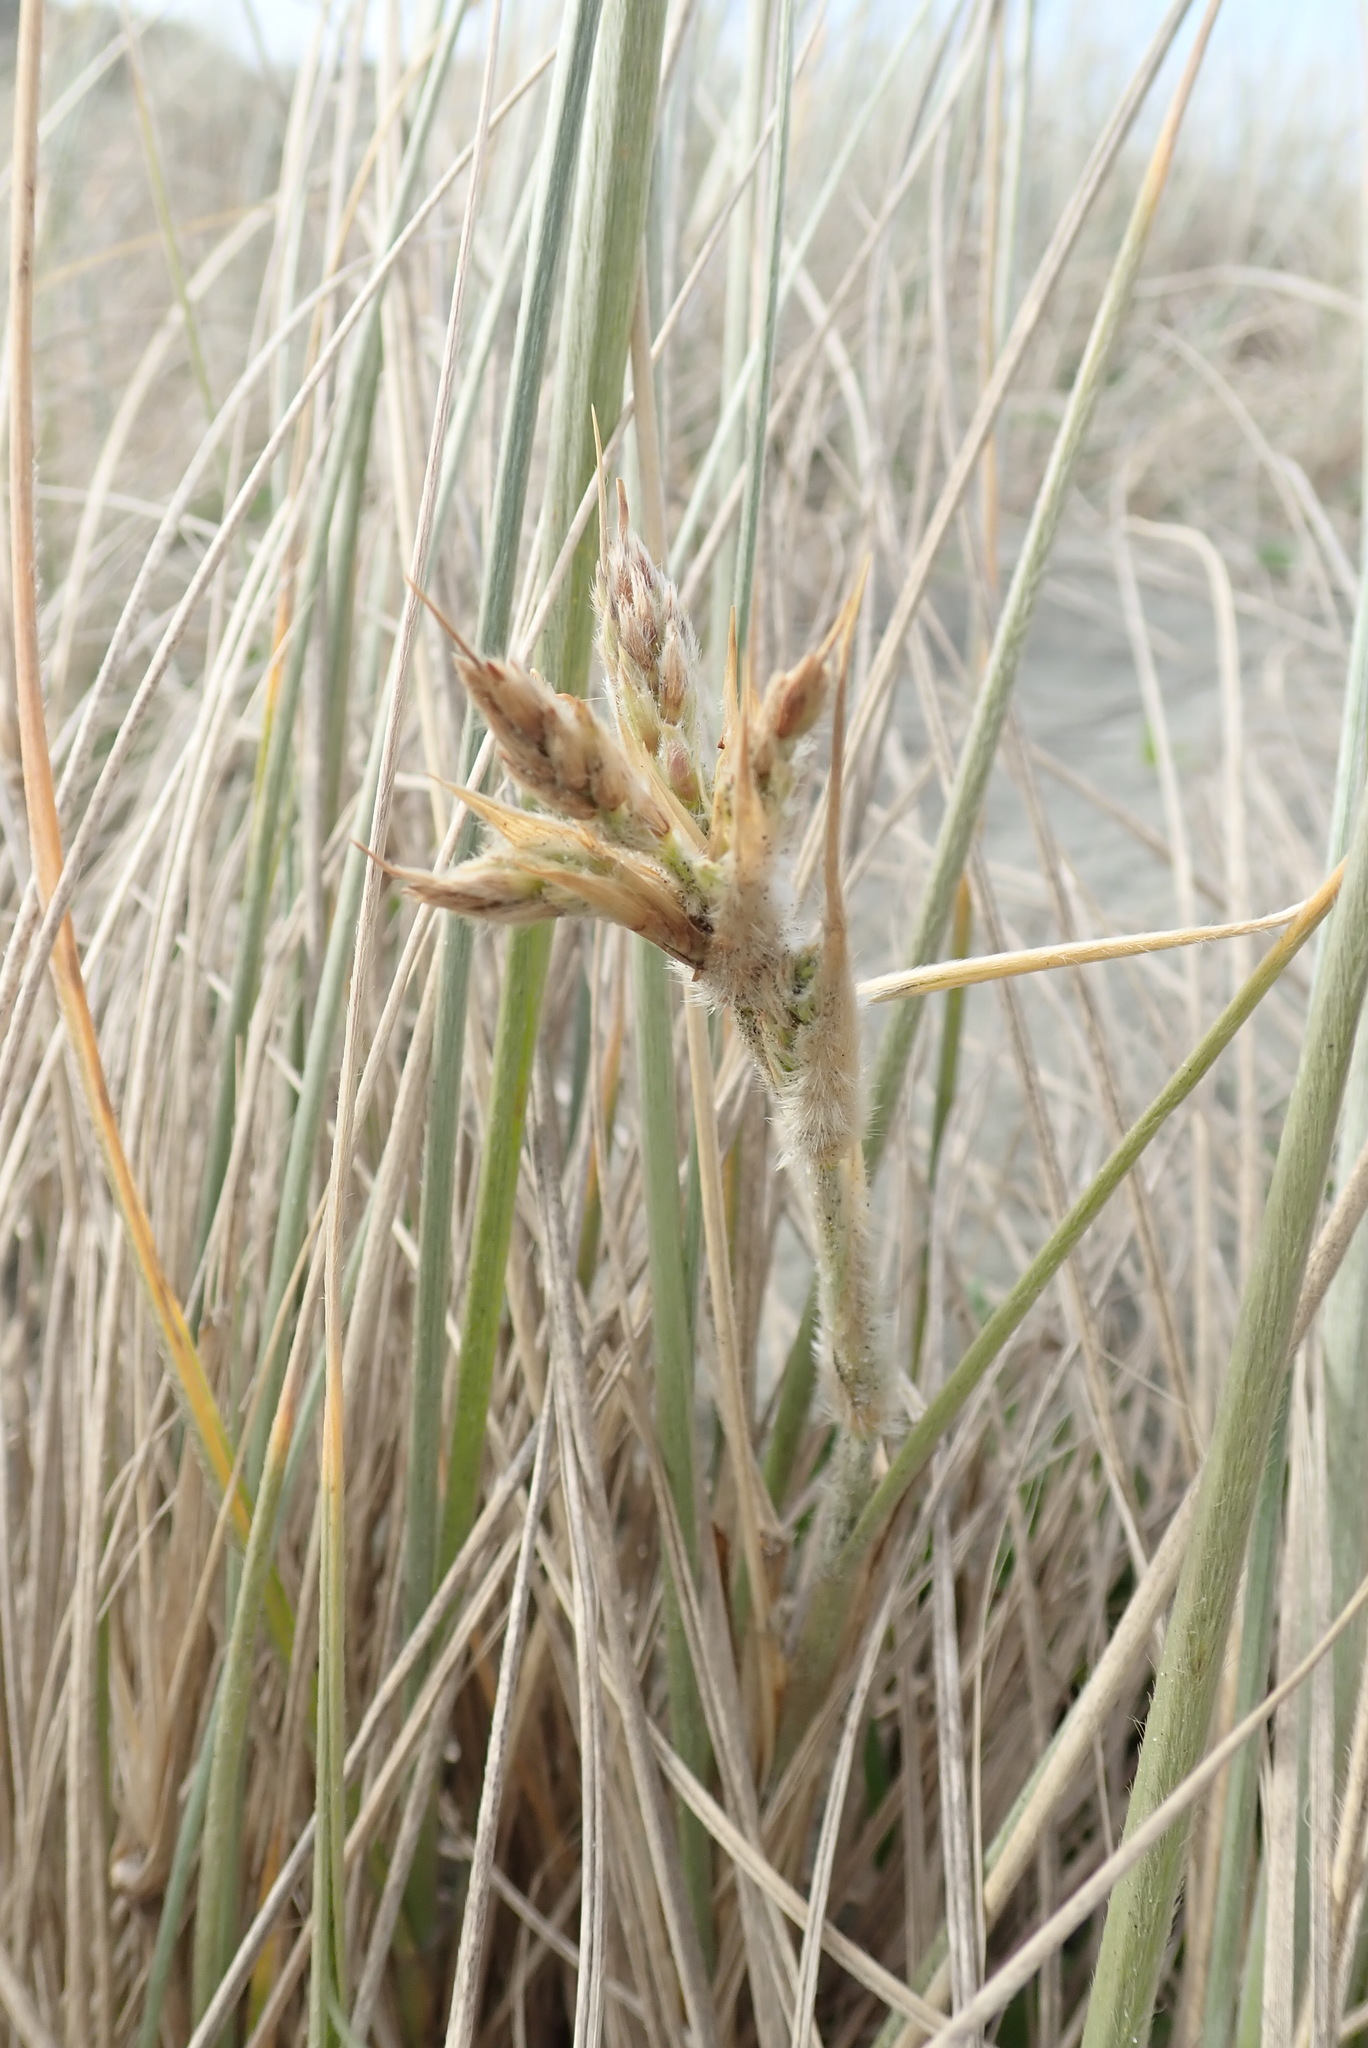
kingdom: Plantae
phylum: Tracheophyta
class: Liliopsida
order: Poales
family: Poaceae
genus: Spinifex
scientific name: Spinifex sericeus
